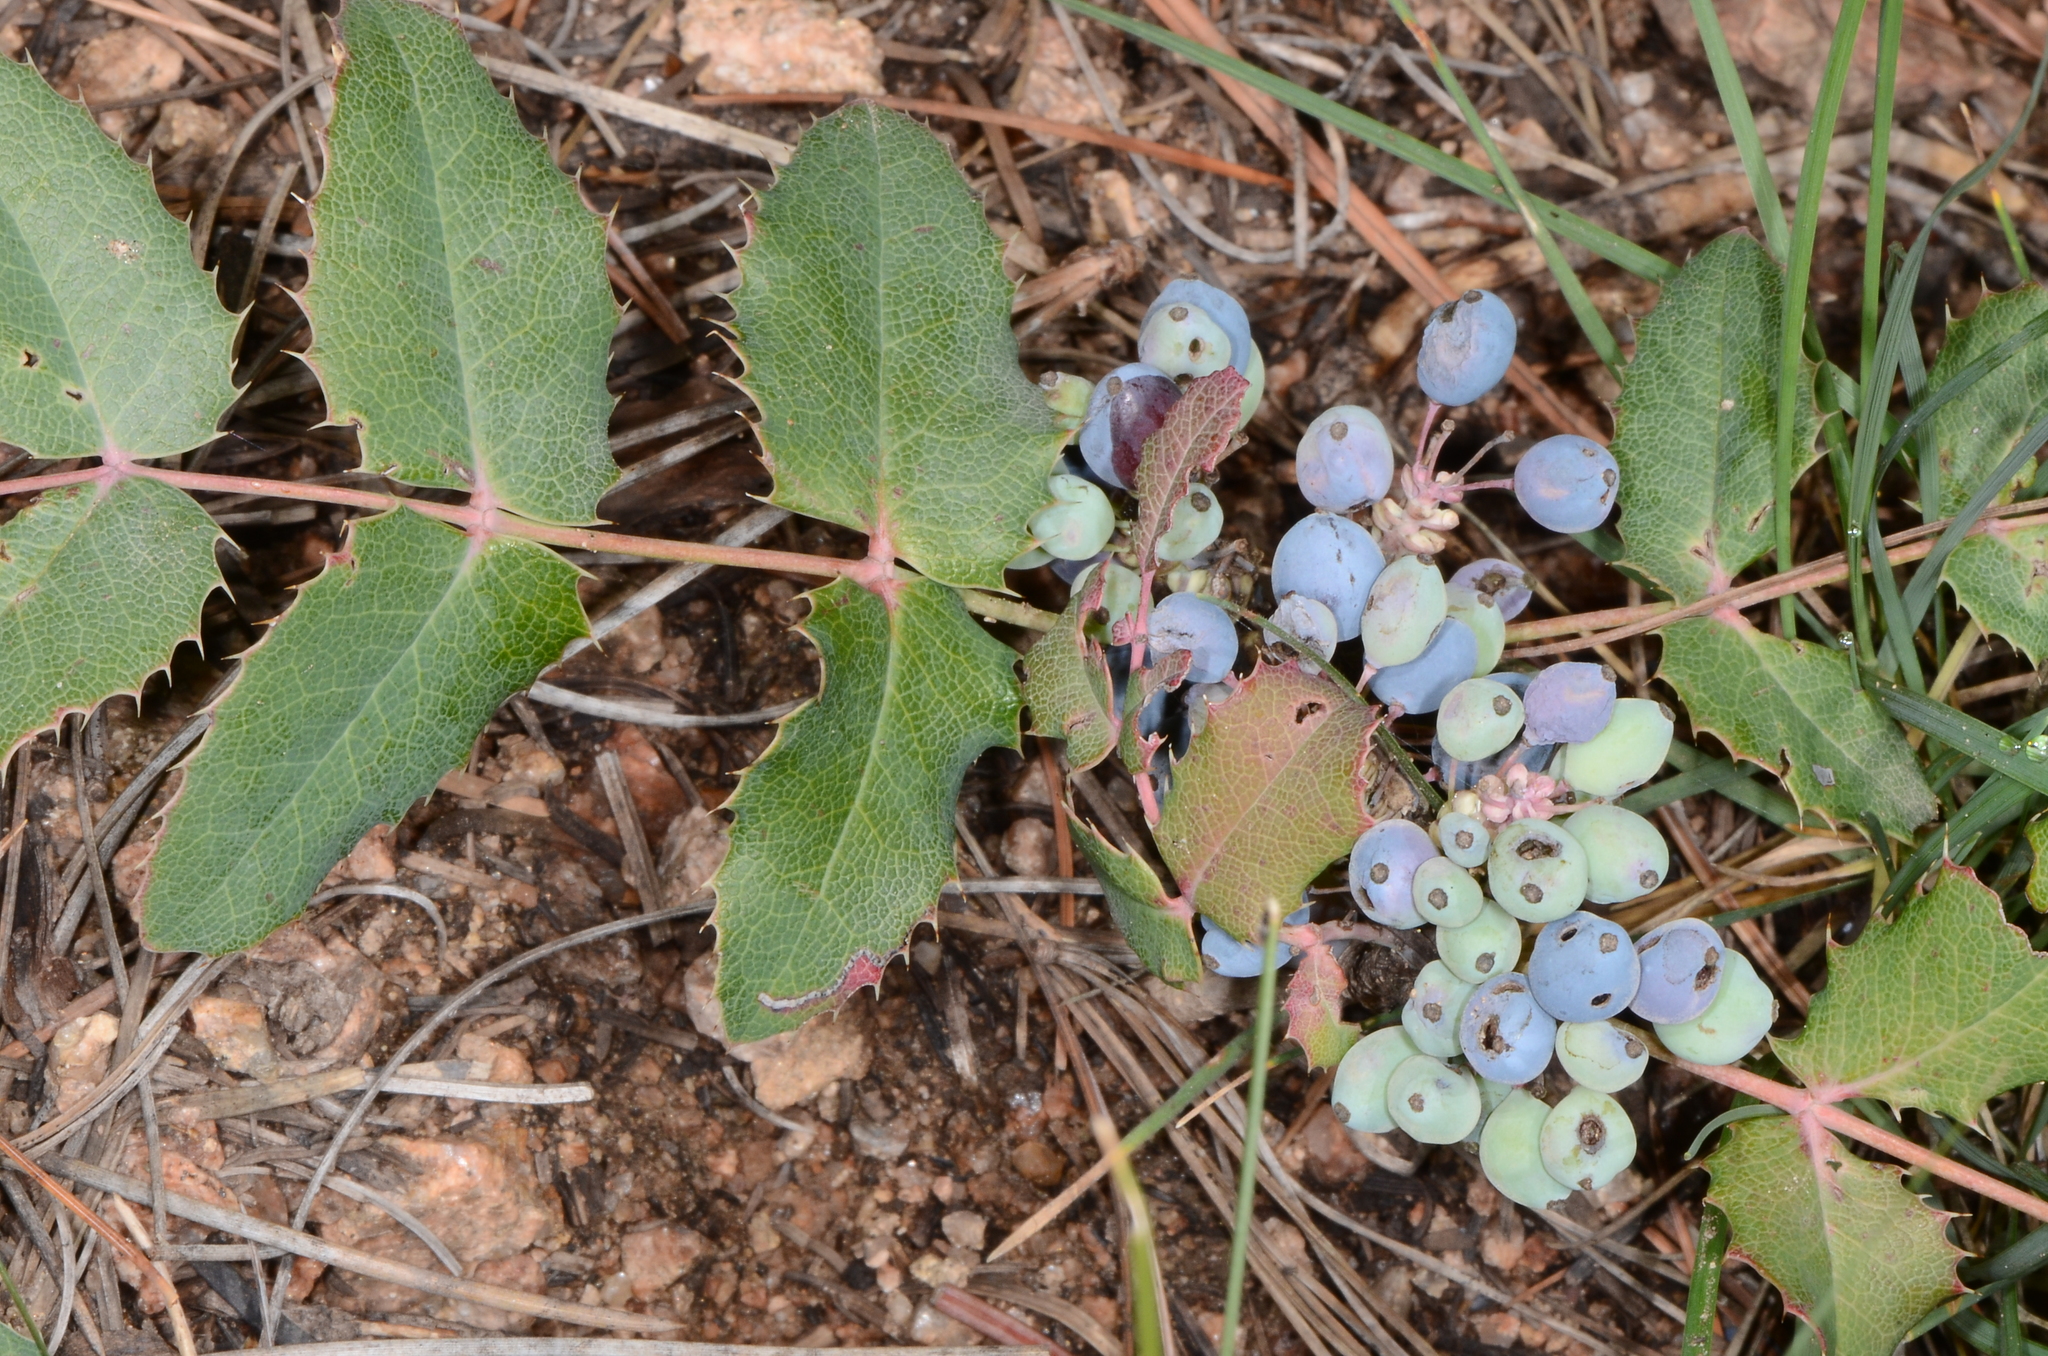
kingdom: Plantae
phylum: Tracheophyta
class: Magnoliopsida
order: Ranunculales
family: Berberidaceae
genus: Mahonia
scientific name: Mahonia repens
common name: Creeping oregon-grape
